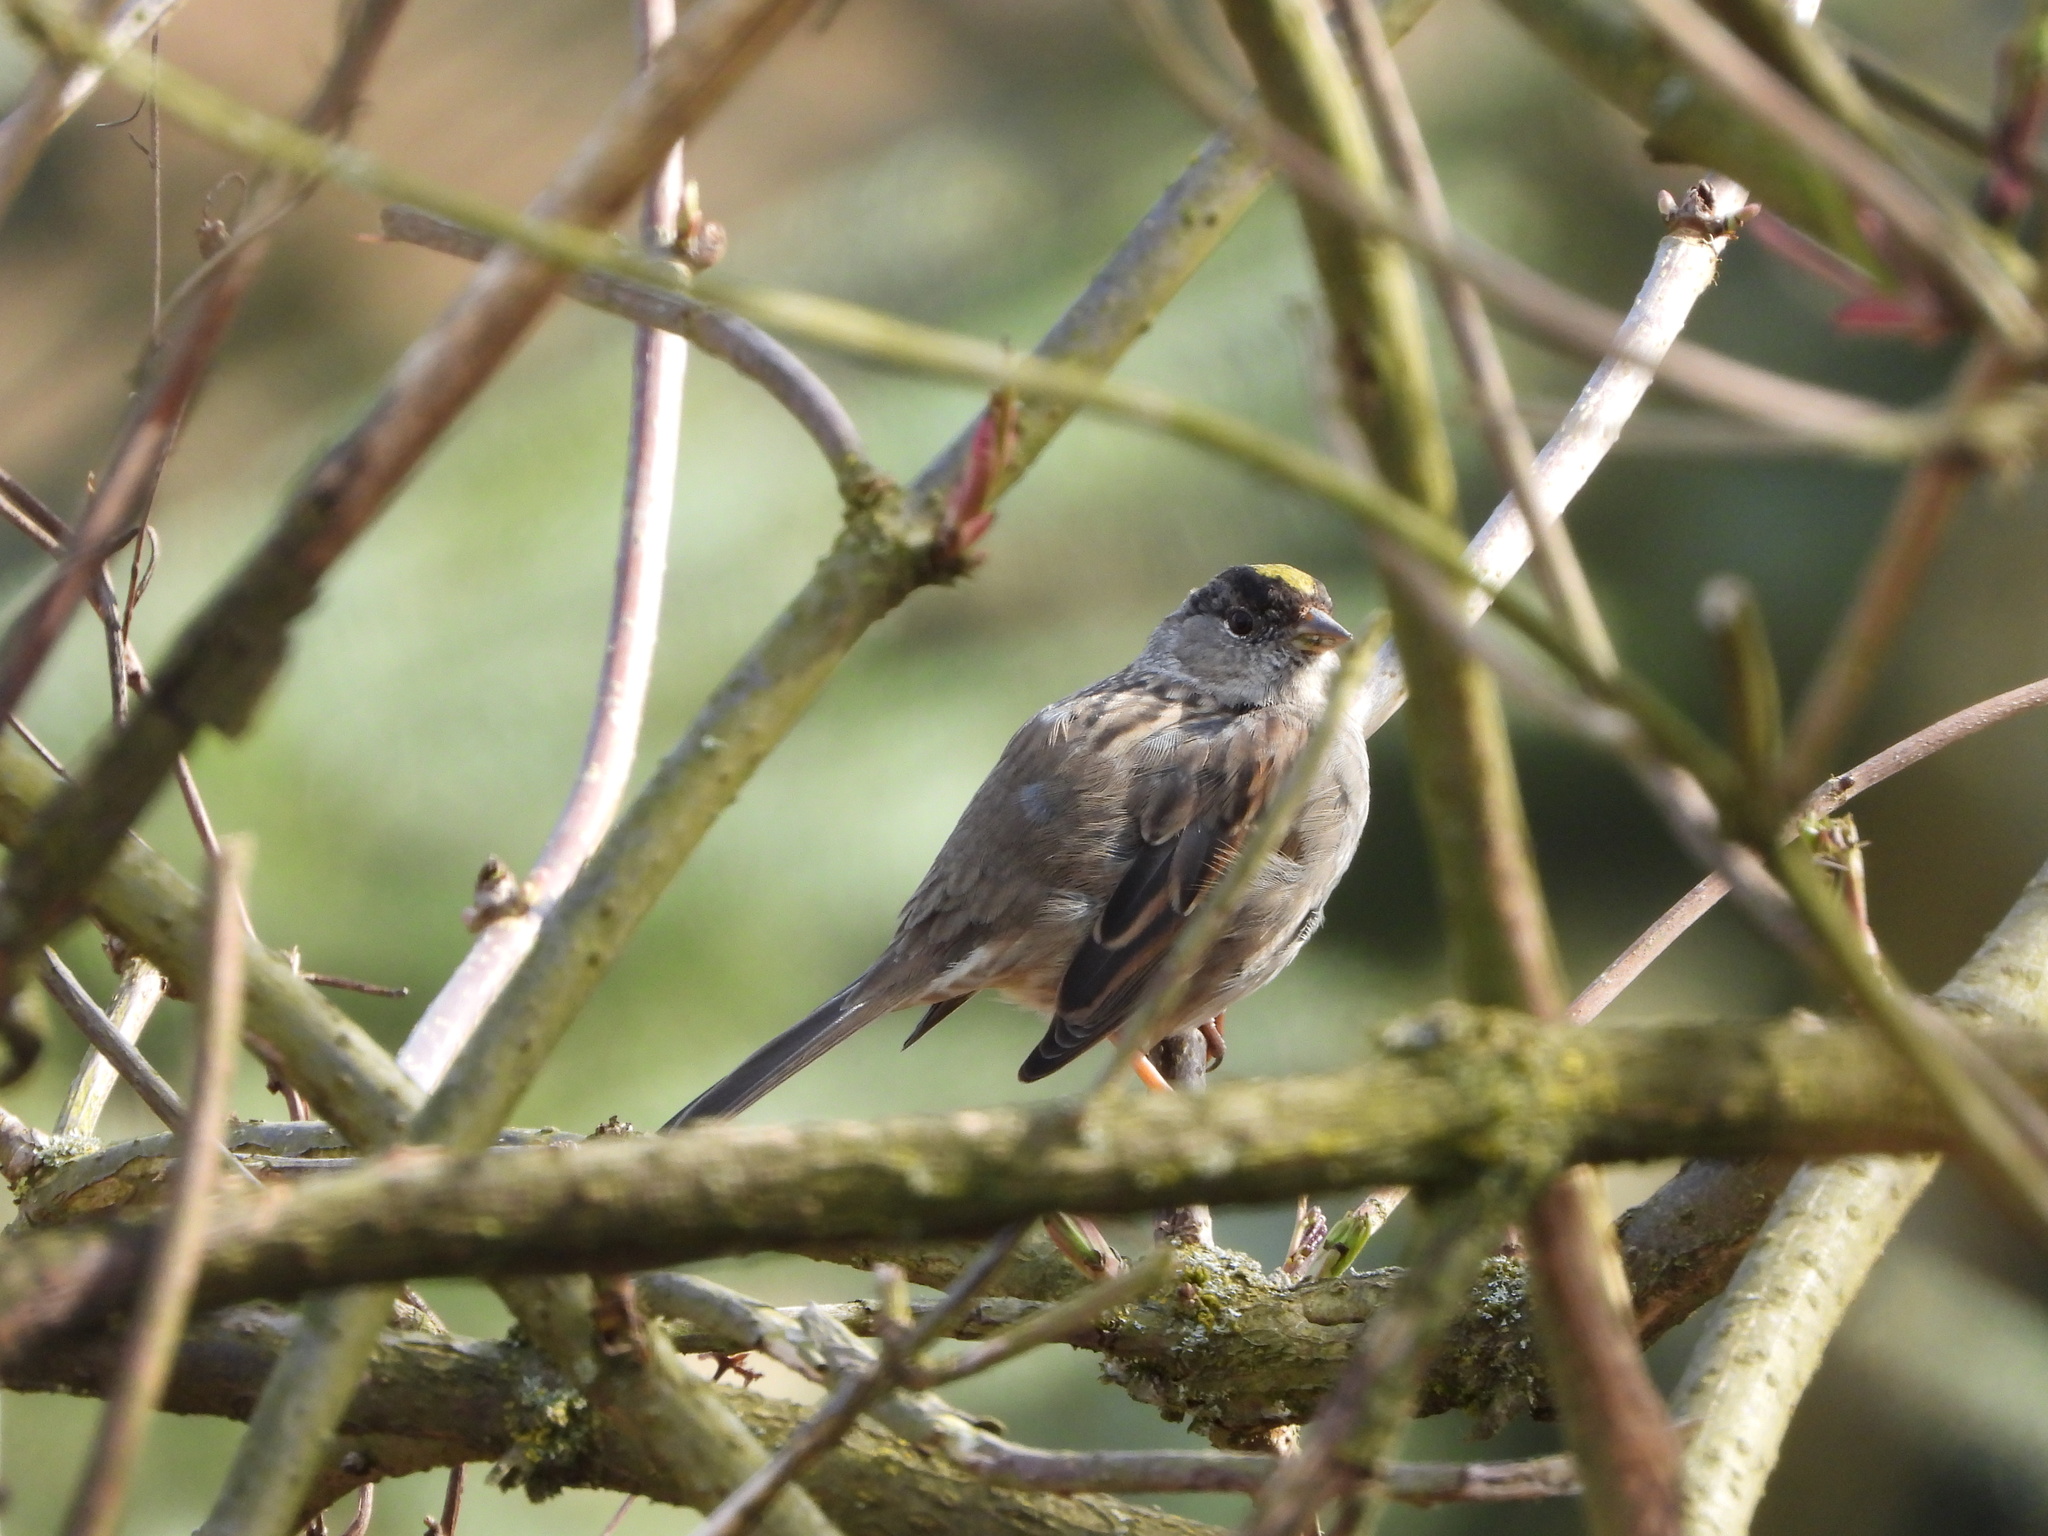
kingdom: Animalia
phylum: Chordata
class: Aves
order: Passeriformes
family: Passerellidae
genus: Zonotrichia
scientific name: Zonotrichia atricapilla
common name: Golden-crowned sparrow
